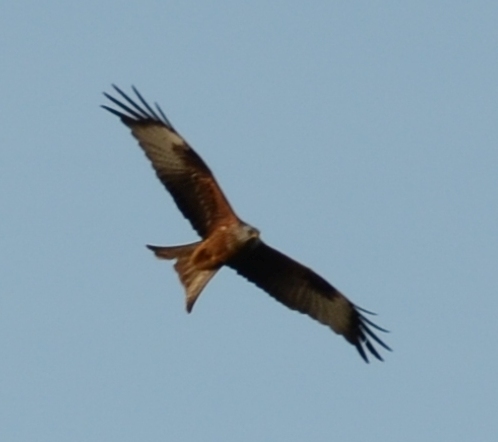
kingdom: Animalia
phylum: Chordata
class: Aves
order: Accipitriformes
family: Accipitridae
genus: Milvus
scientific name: Milvus milvus
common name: Red kite
